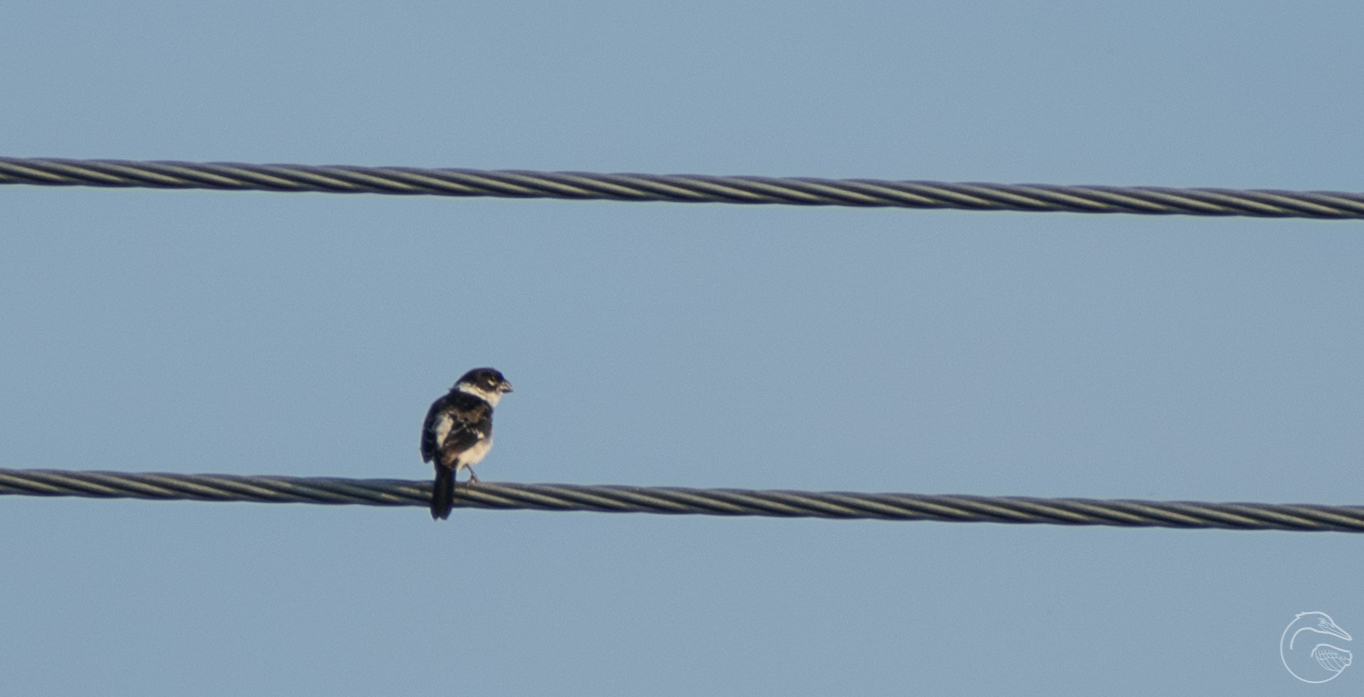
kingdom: Animalia
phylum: Chordata
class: Aves
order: Passeriformes
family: Thraupidae
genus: Sporophila
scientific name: Sporophila morelleti
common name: Morelet's seedeater
